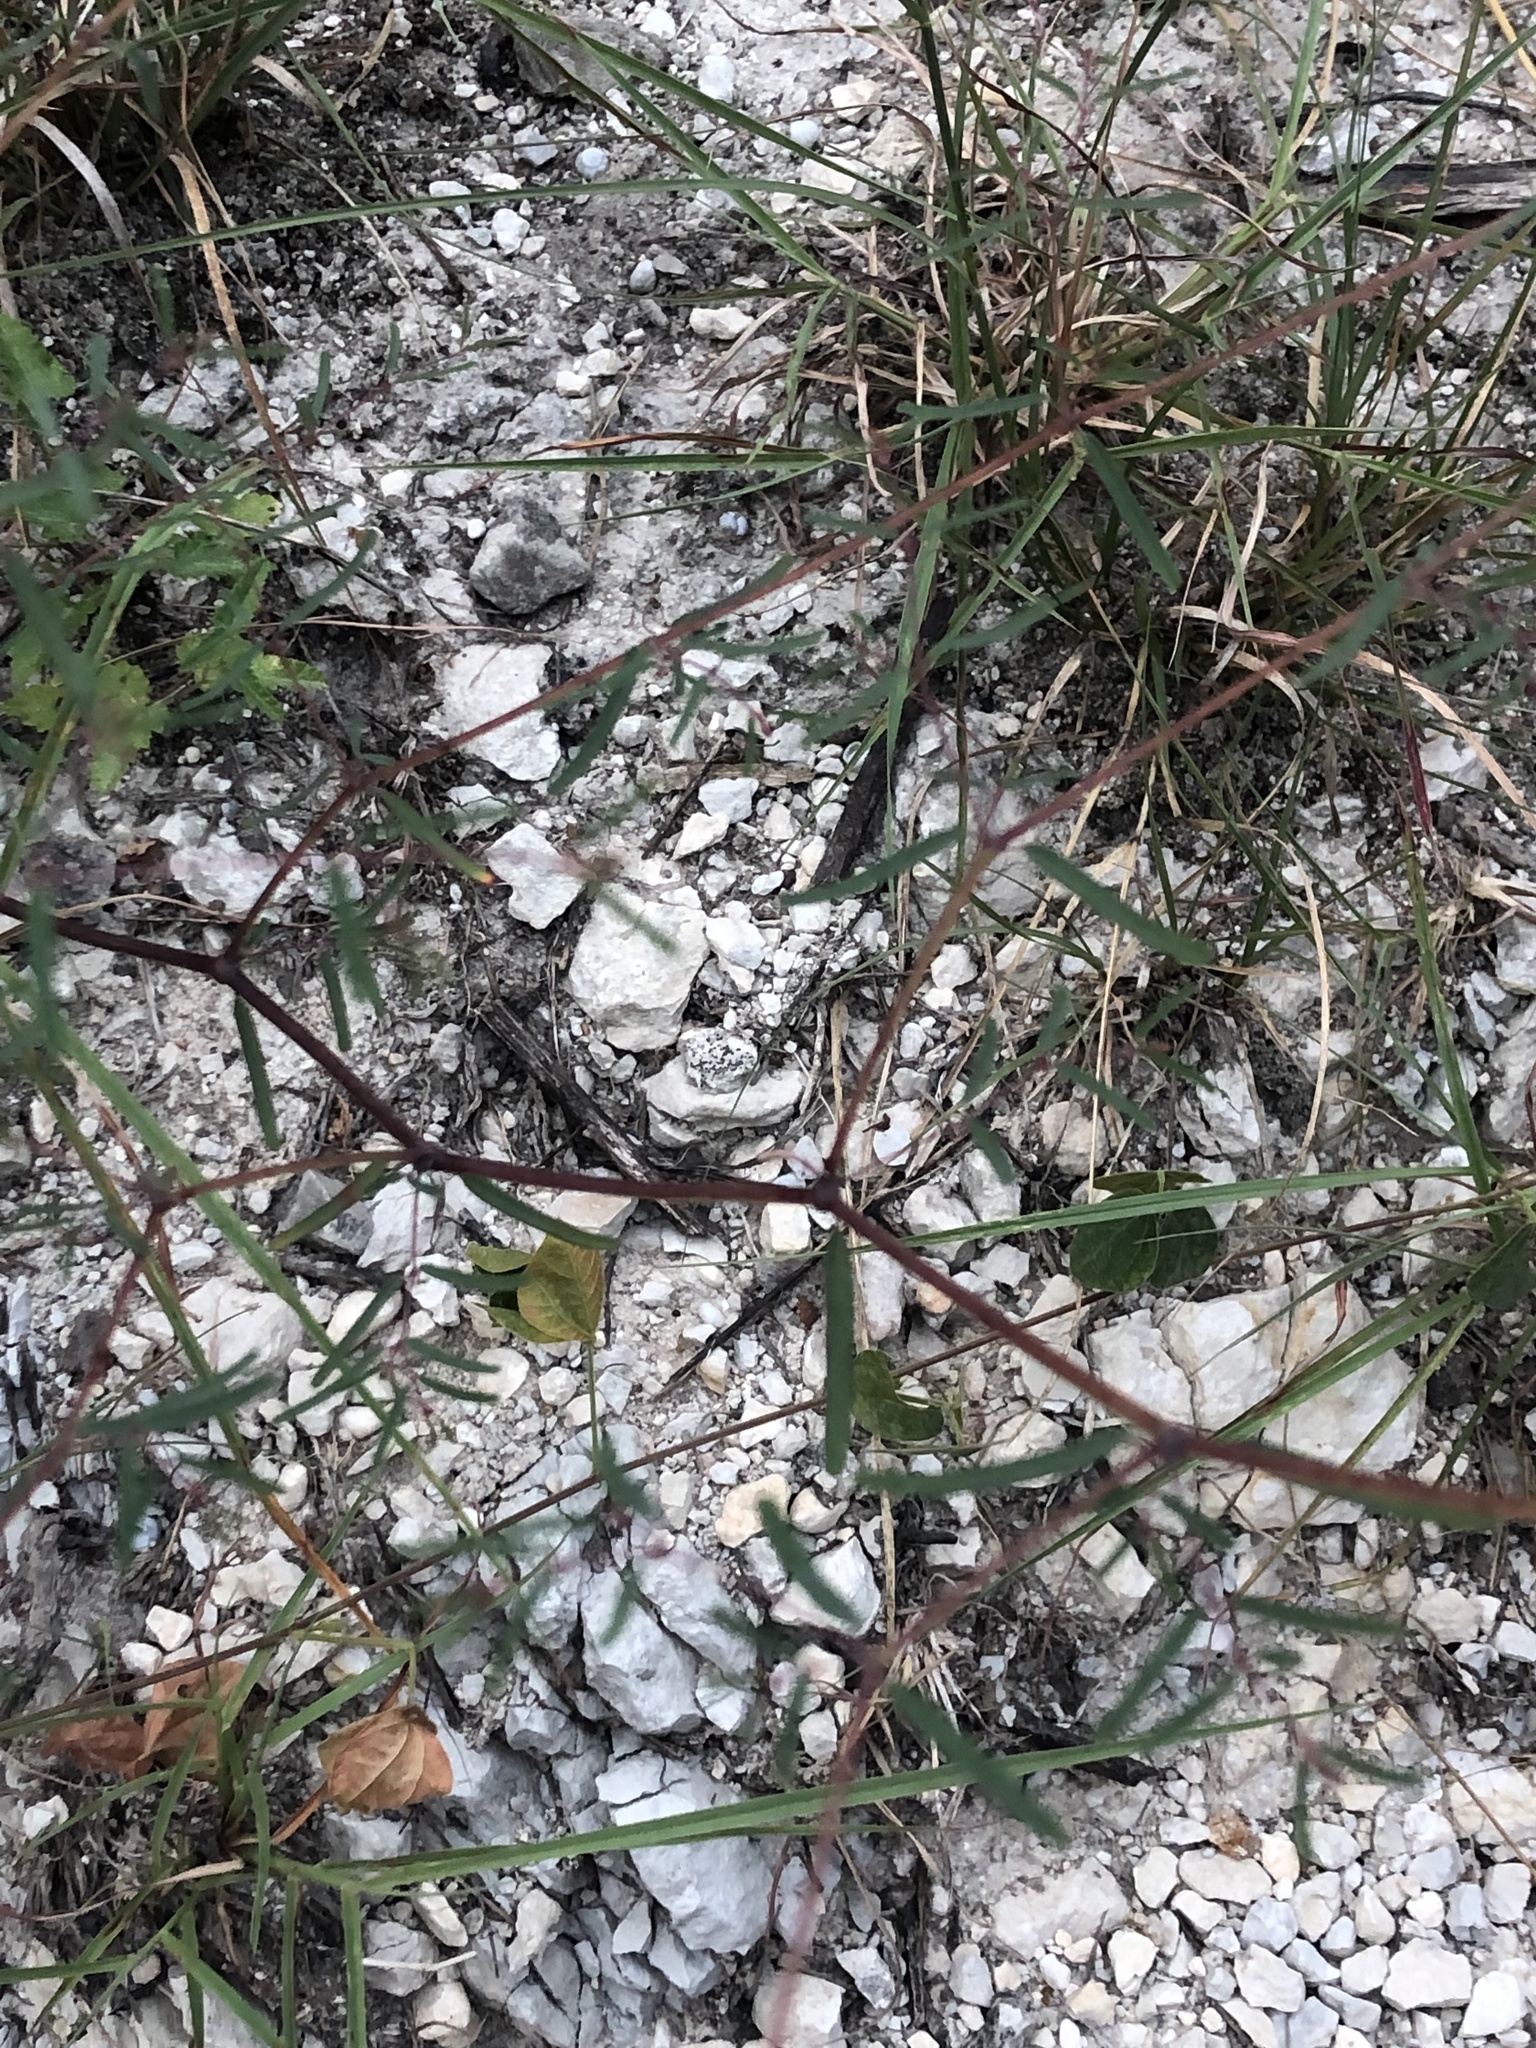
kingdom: Plantae
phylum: Tracheophyta
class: Magnoliopsida
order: Malpighiales
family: Euphorbiaceae
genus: Euphorbia
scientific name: Euphorbia missurica
